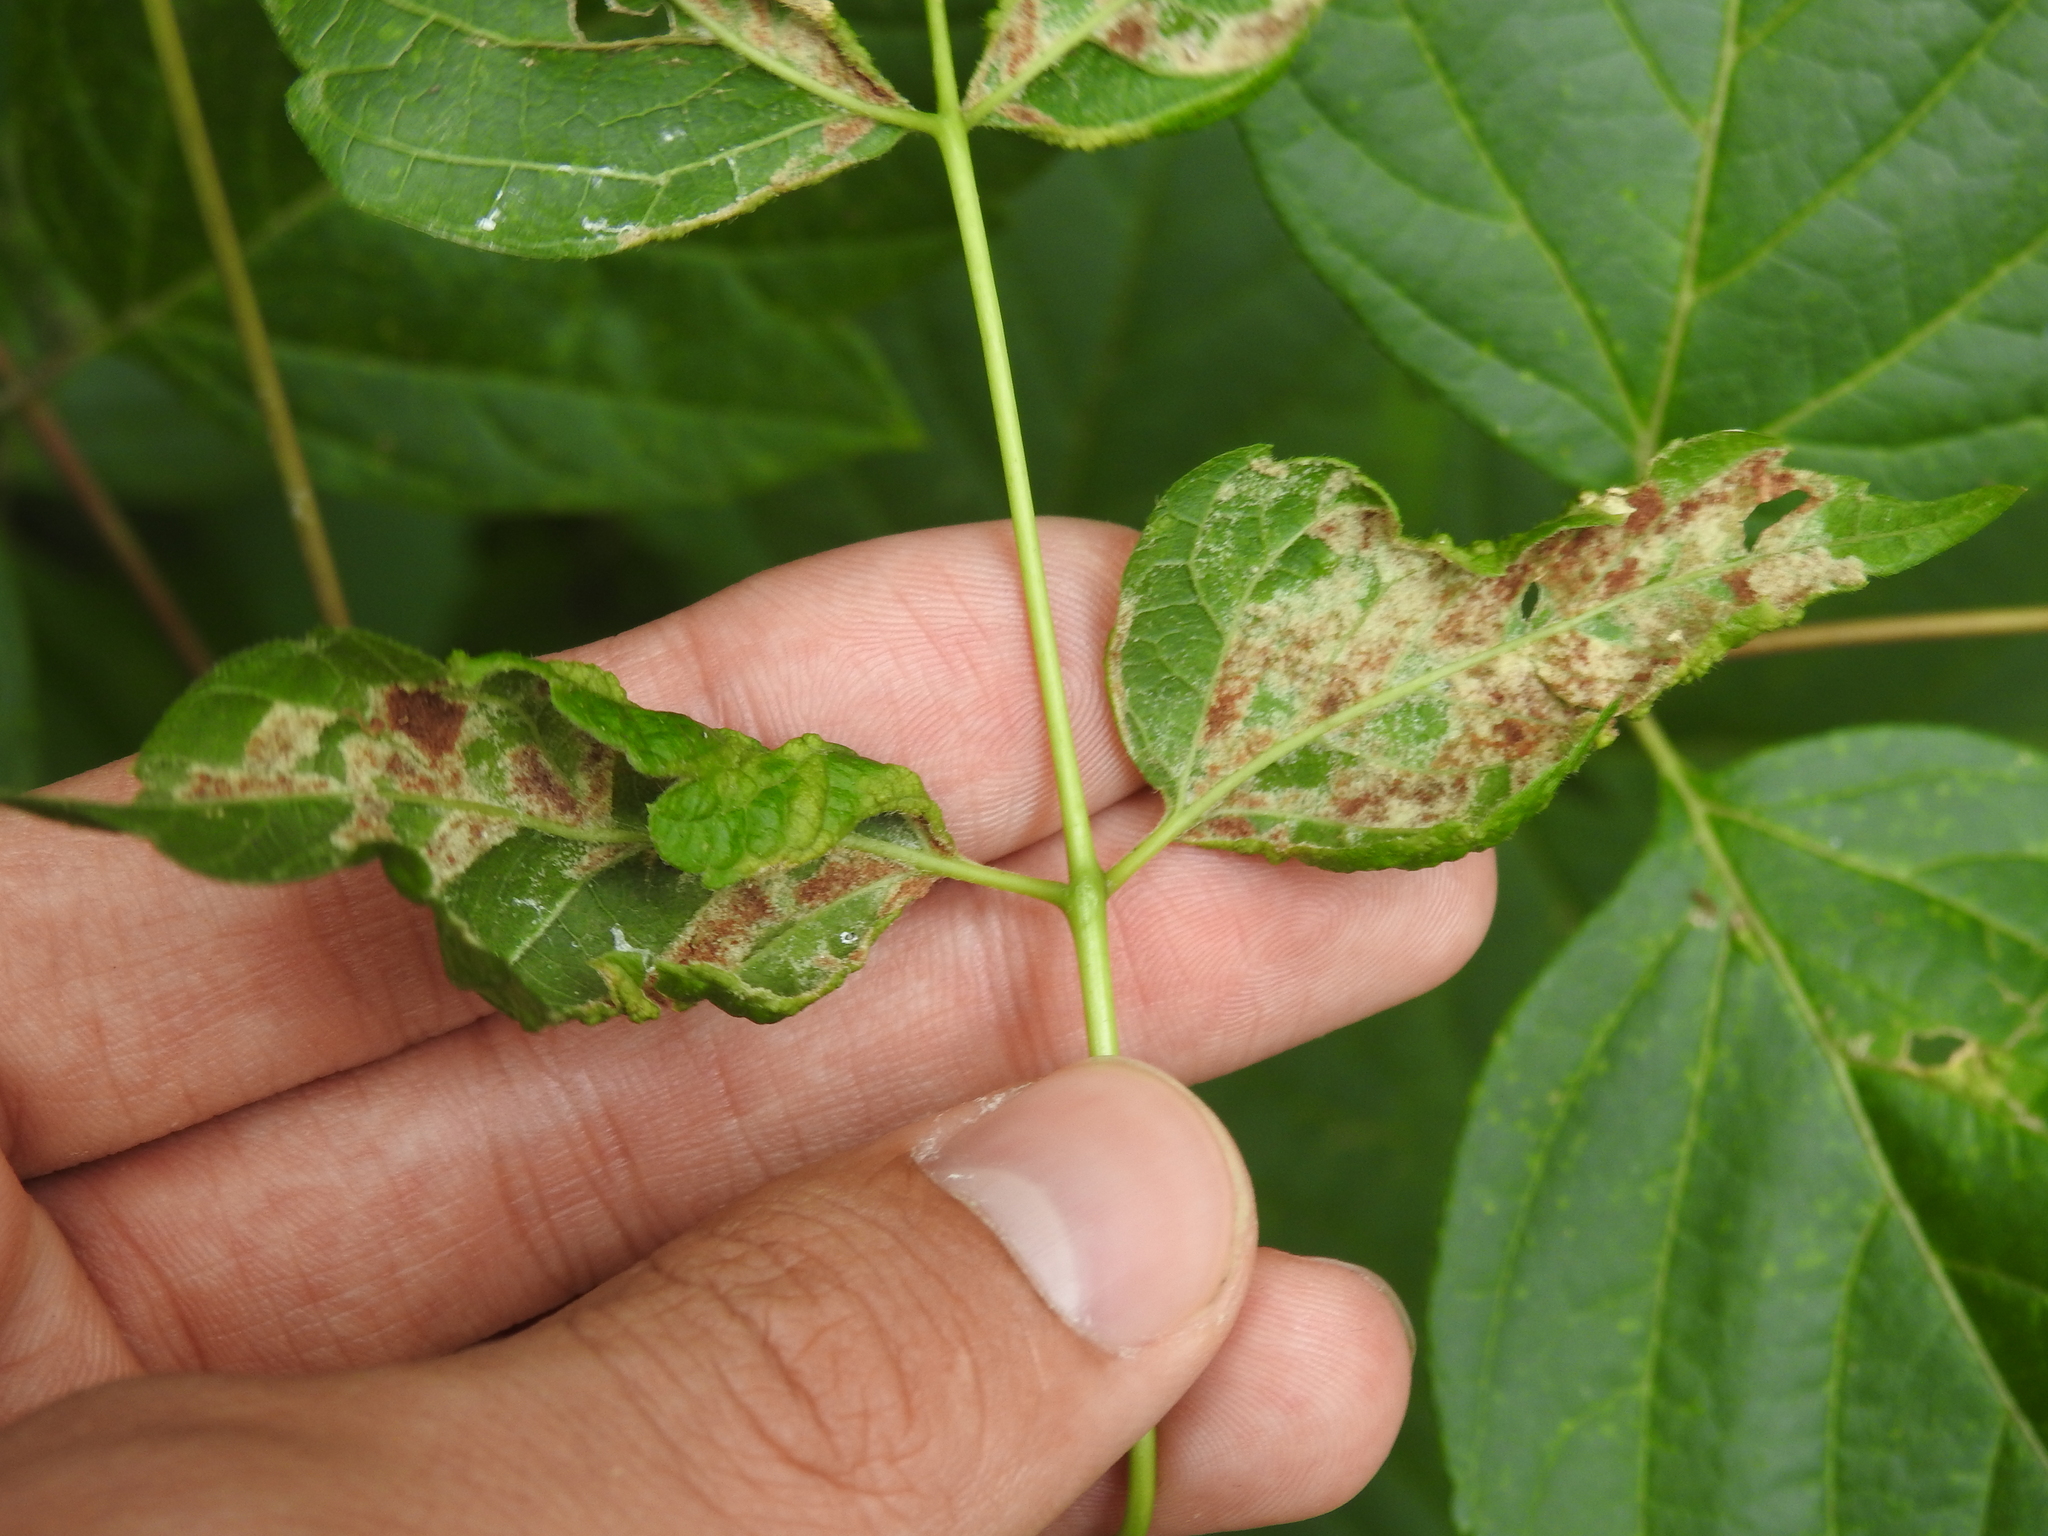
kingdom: Animalia
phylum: Arthropoda
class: Arachnida
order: Trombidiformes
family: Eriophyidae
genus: Aceria
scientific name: Aceria
